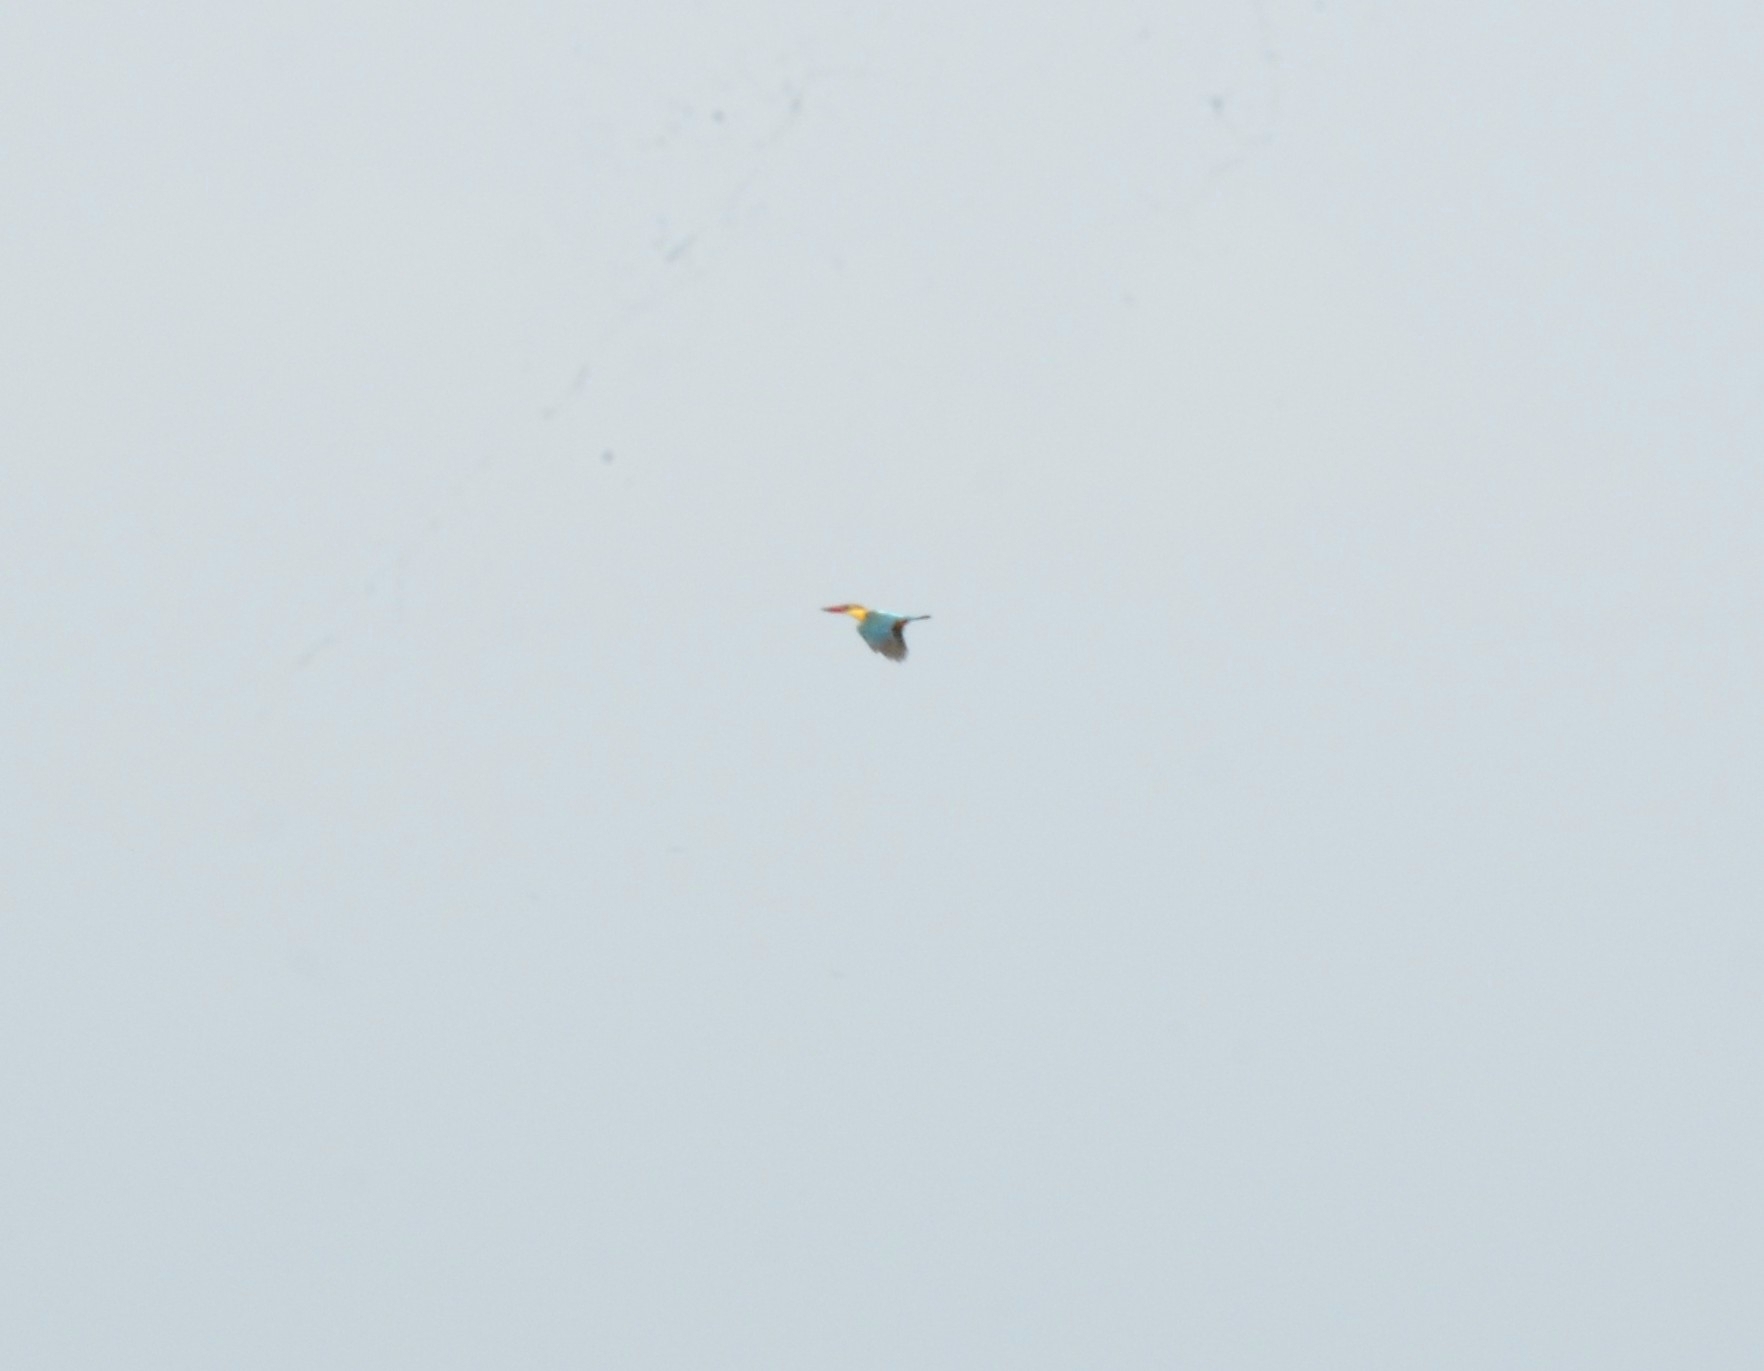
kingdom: Animalia
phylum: Chordata
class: Aves
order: Coraciiformes
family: Alcedinidae
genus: Pelargopsis
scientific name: Pelargopsis capensis
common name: Stork-billed kingfisher
